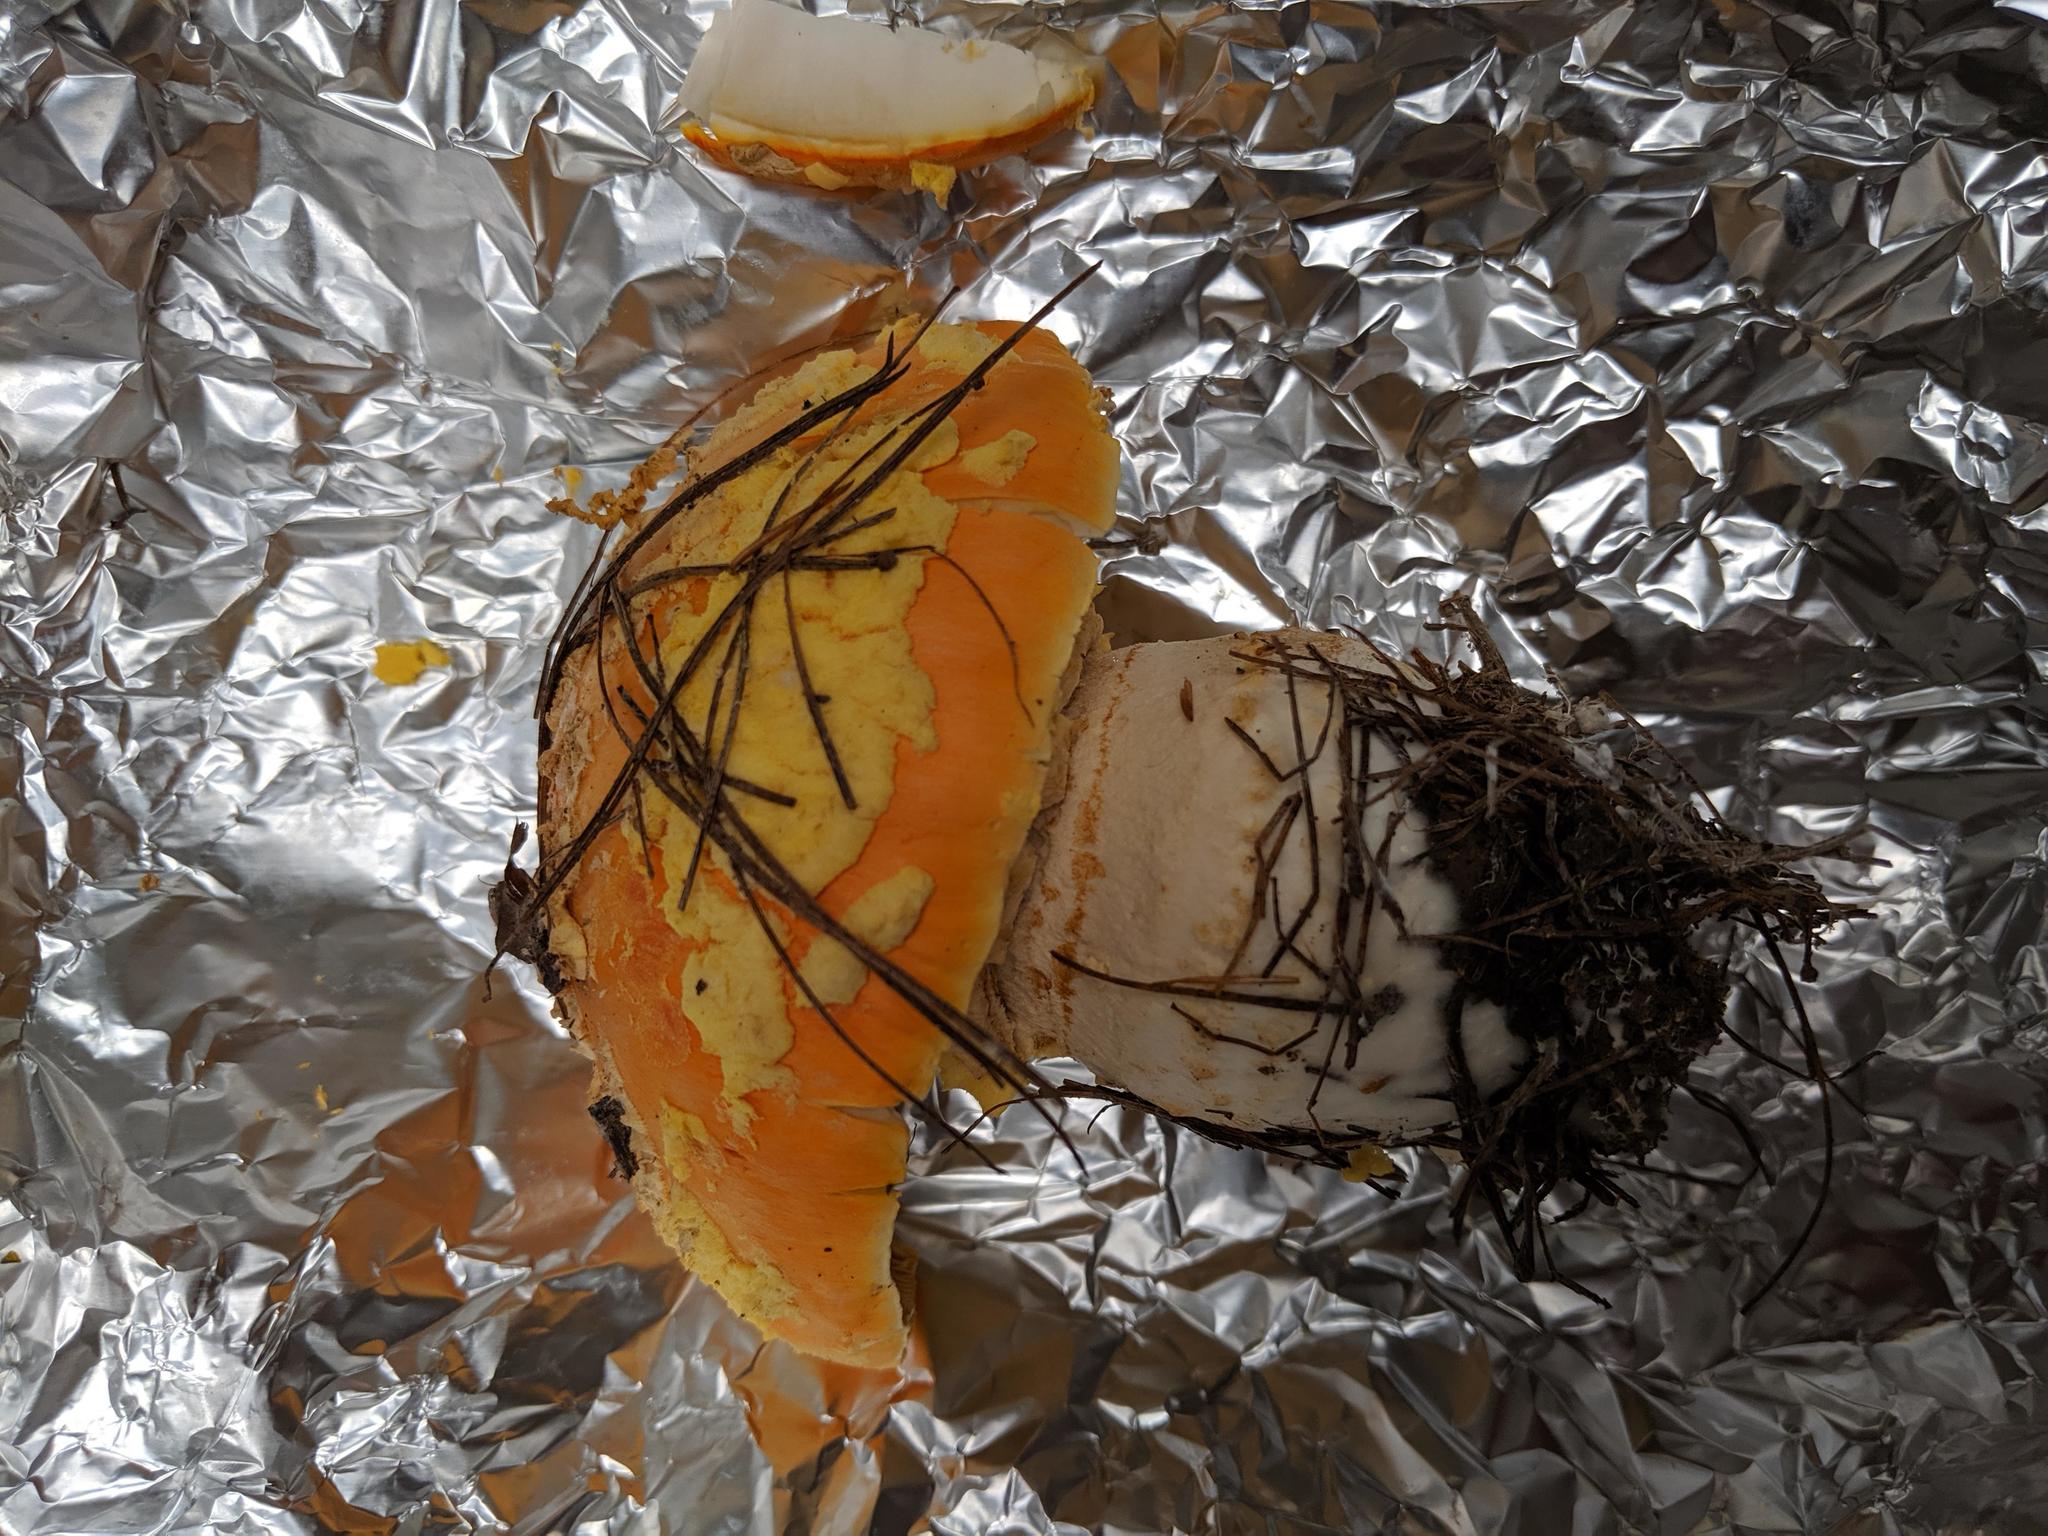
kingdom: Fungi
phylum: Basidiomycota
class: Agaricomycetes
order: Agaricales
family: Amanitaceae
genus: Amanita
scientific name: Amanita muscaria
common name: Fly agaric
